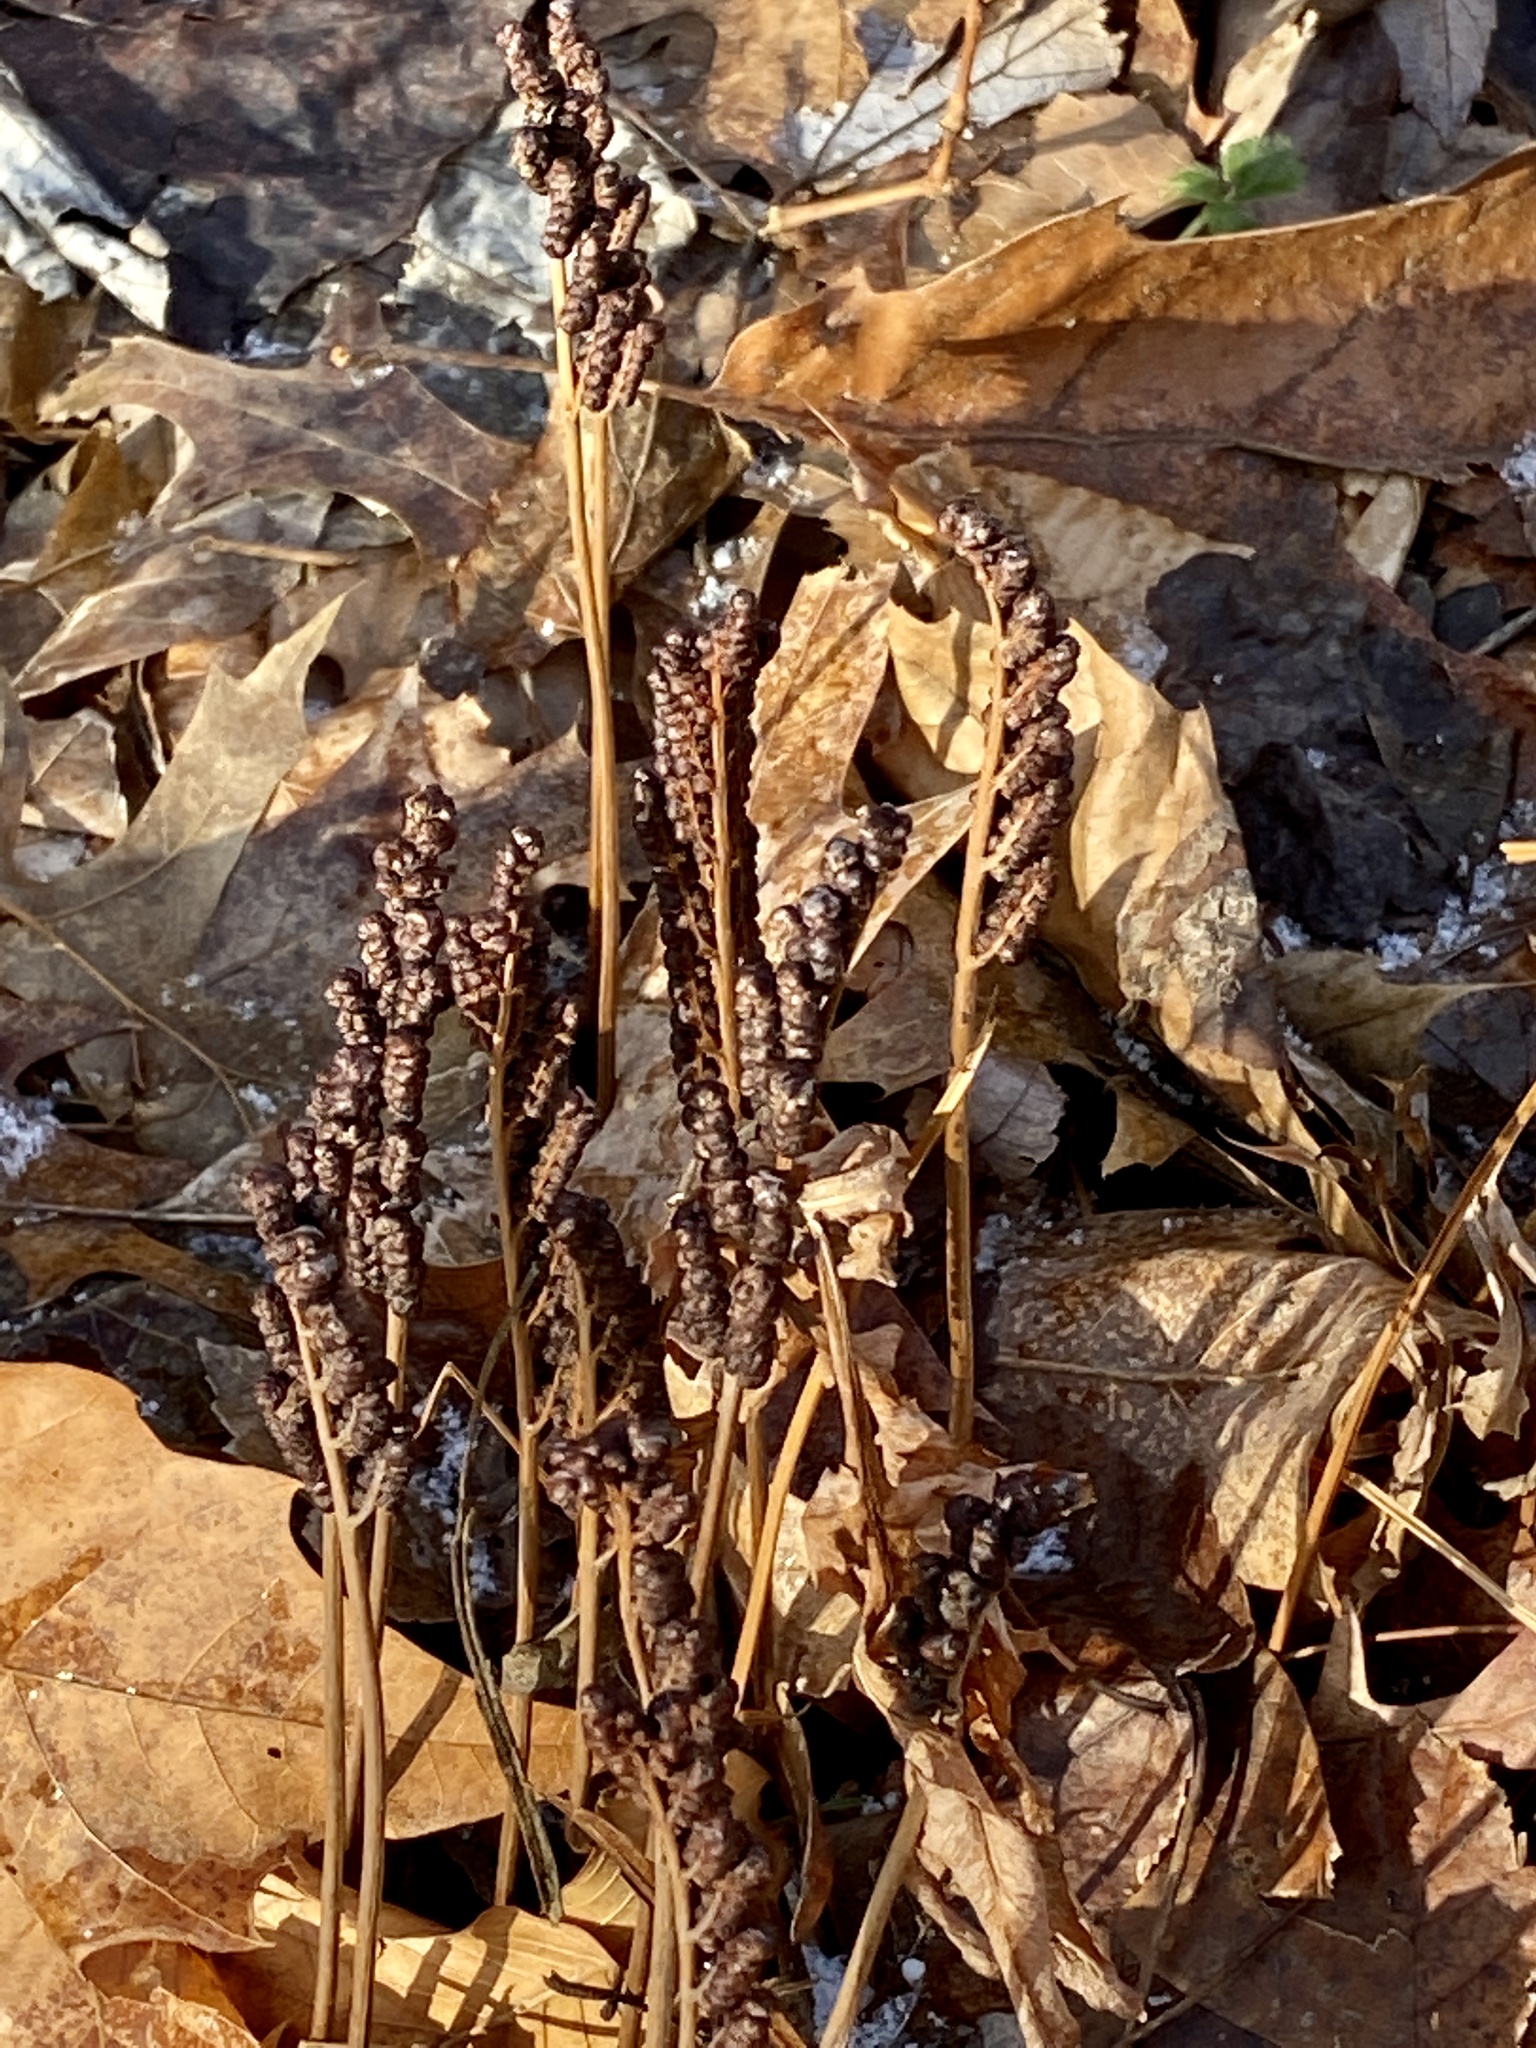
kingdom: Plantae
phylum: Tracheophyta
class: Polypodiopsida
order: Polypodiales
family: Onocleaceae
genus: Onoclea
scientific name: Onoclea sensibilis
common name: Sensitive fern
